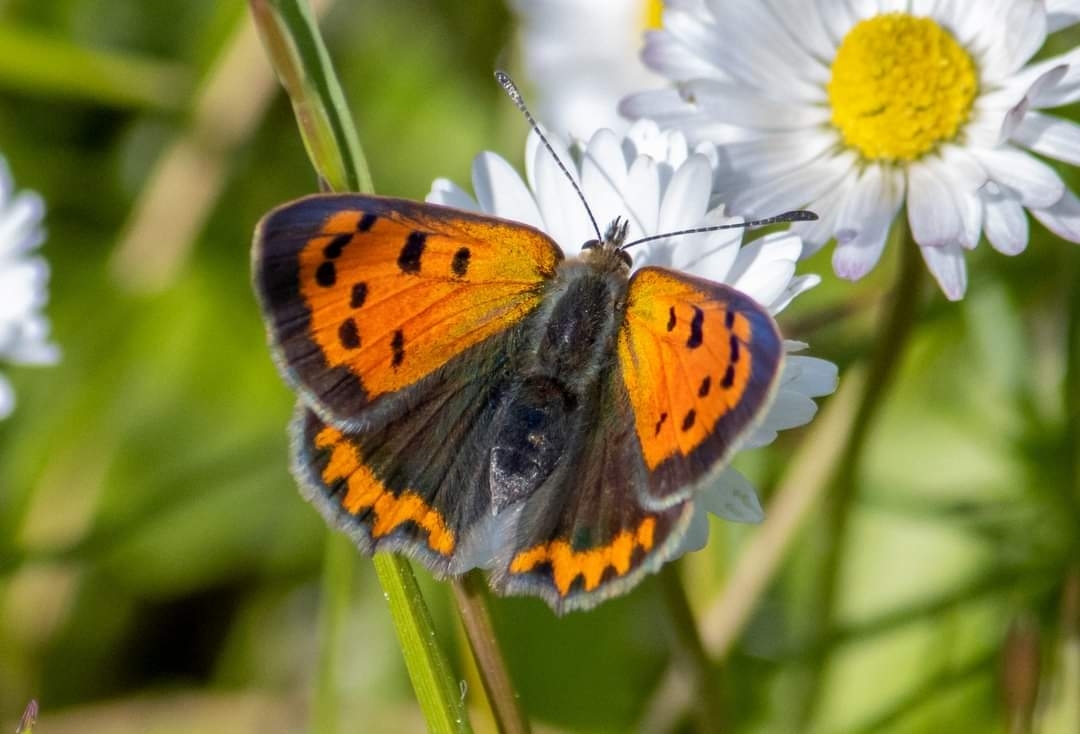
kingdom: Animalia
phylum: Arthropoda
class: Insecta
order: Lepidoptera
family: Lycaenidae
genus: Lycaena
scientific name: Lycaena phlaeas
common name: Small copper
